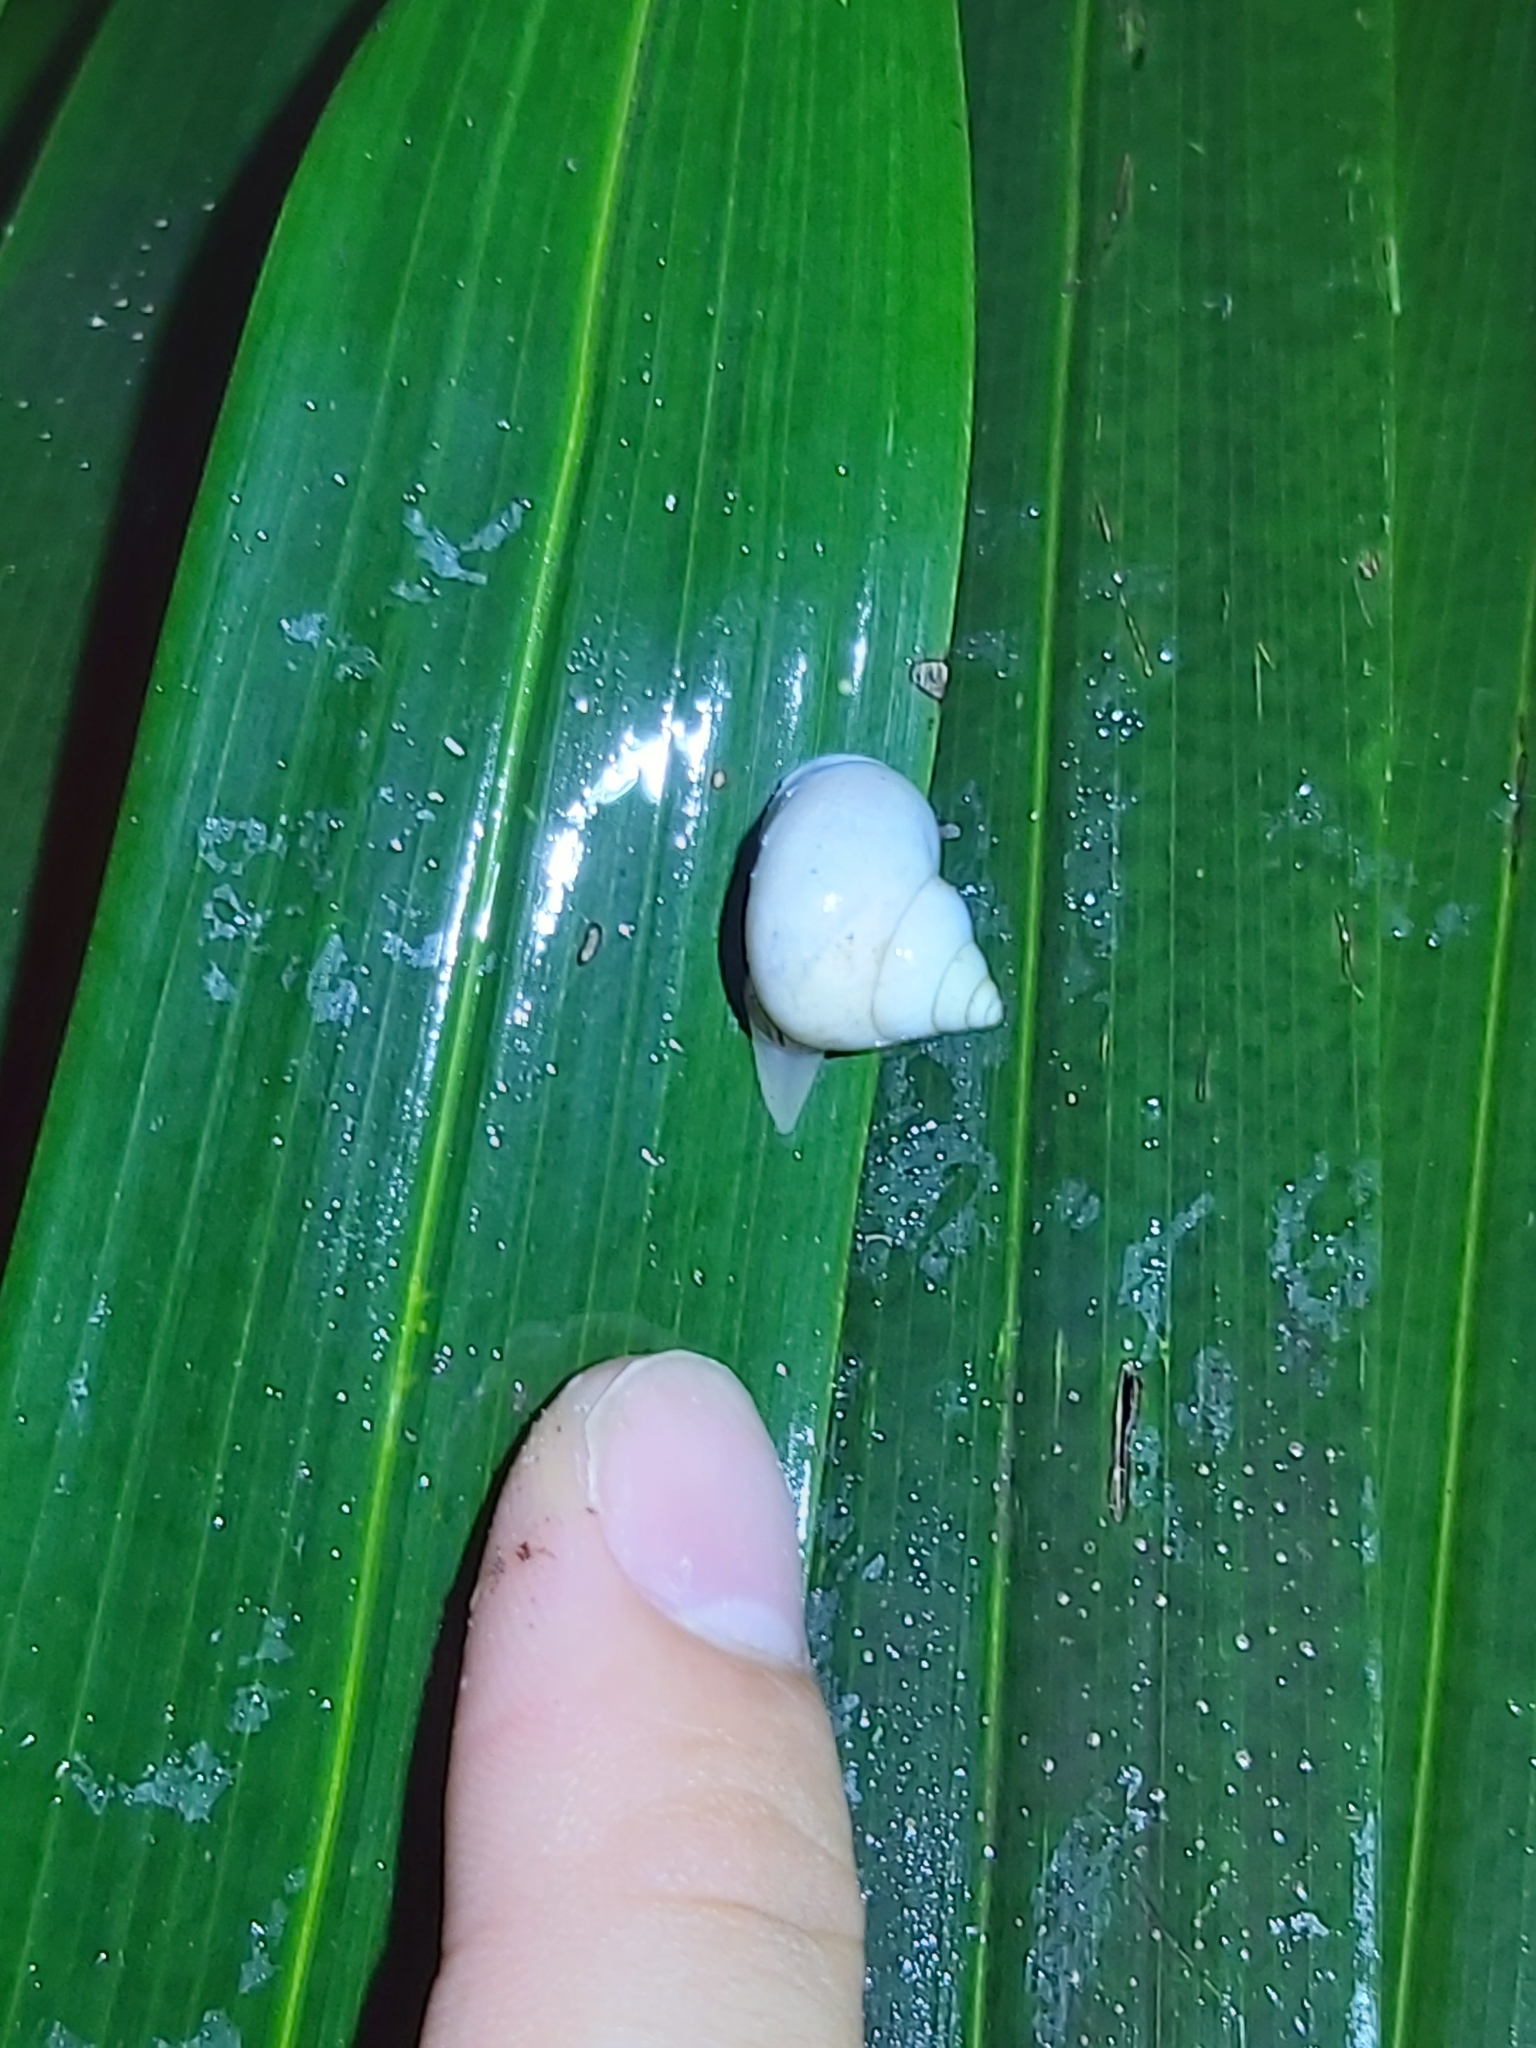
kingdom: Animalia
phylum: Mollusca
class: Gastropoda
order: Architaenioglossa
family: Cyclophoridae
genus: Leptopoma
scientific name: Leptopoma perlucidum
